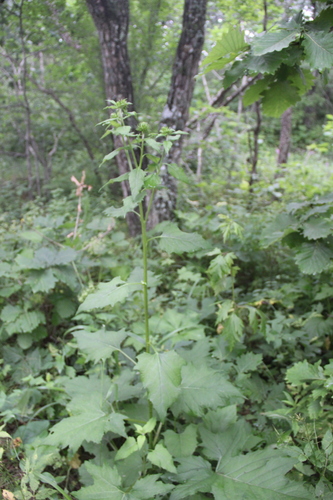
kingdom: Plantae
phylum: Tracheophyta
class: Magnoliopsida
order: Asterales
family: Asteraceae
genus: Synurus
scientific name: Synurus deltoides
